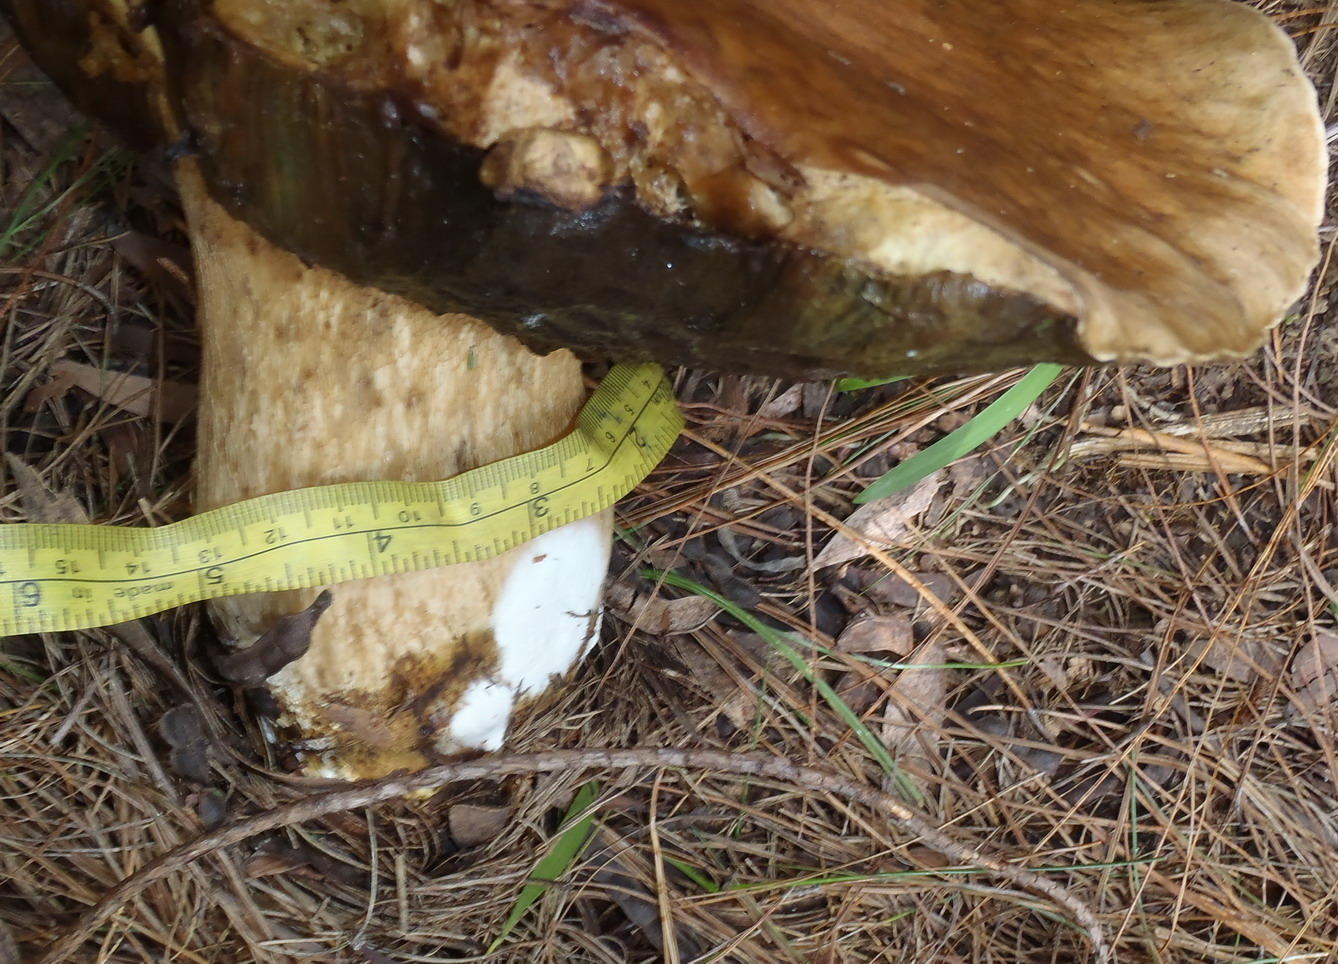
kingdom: Fungi
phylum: Basidiomycota
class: Agaricomycetes
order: Boletales
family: Boletaceae
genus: Boletus
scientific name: Boletus edulis
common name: Cep
